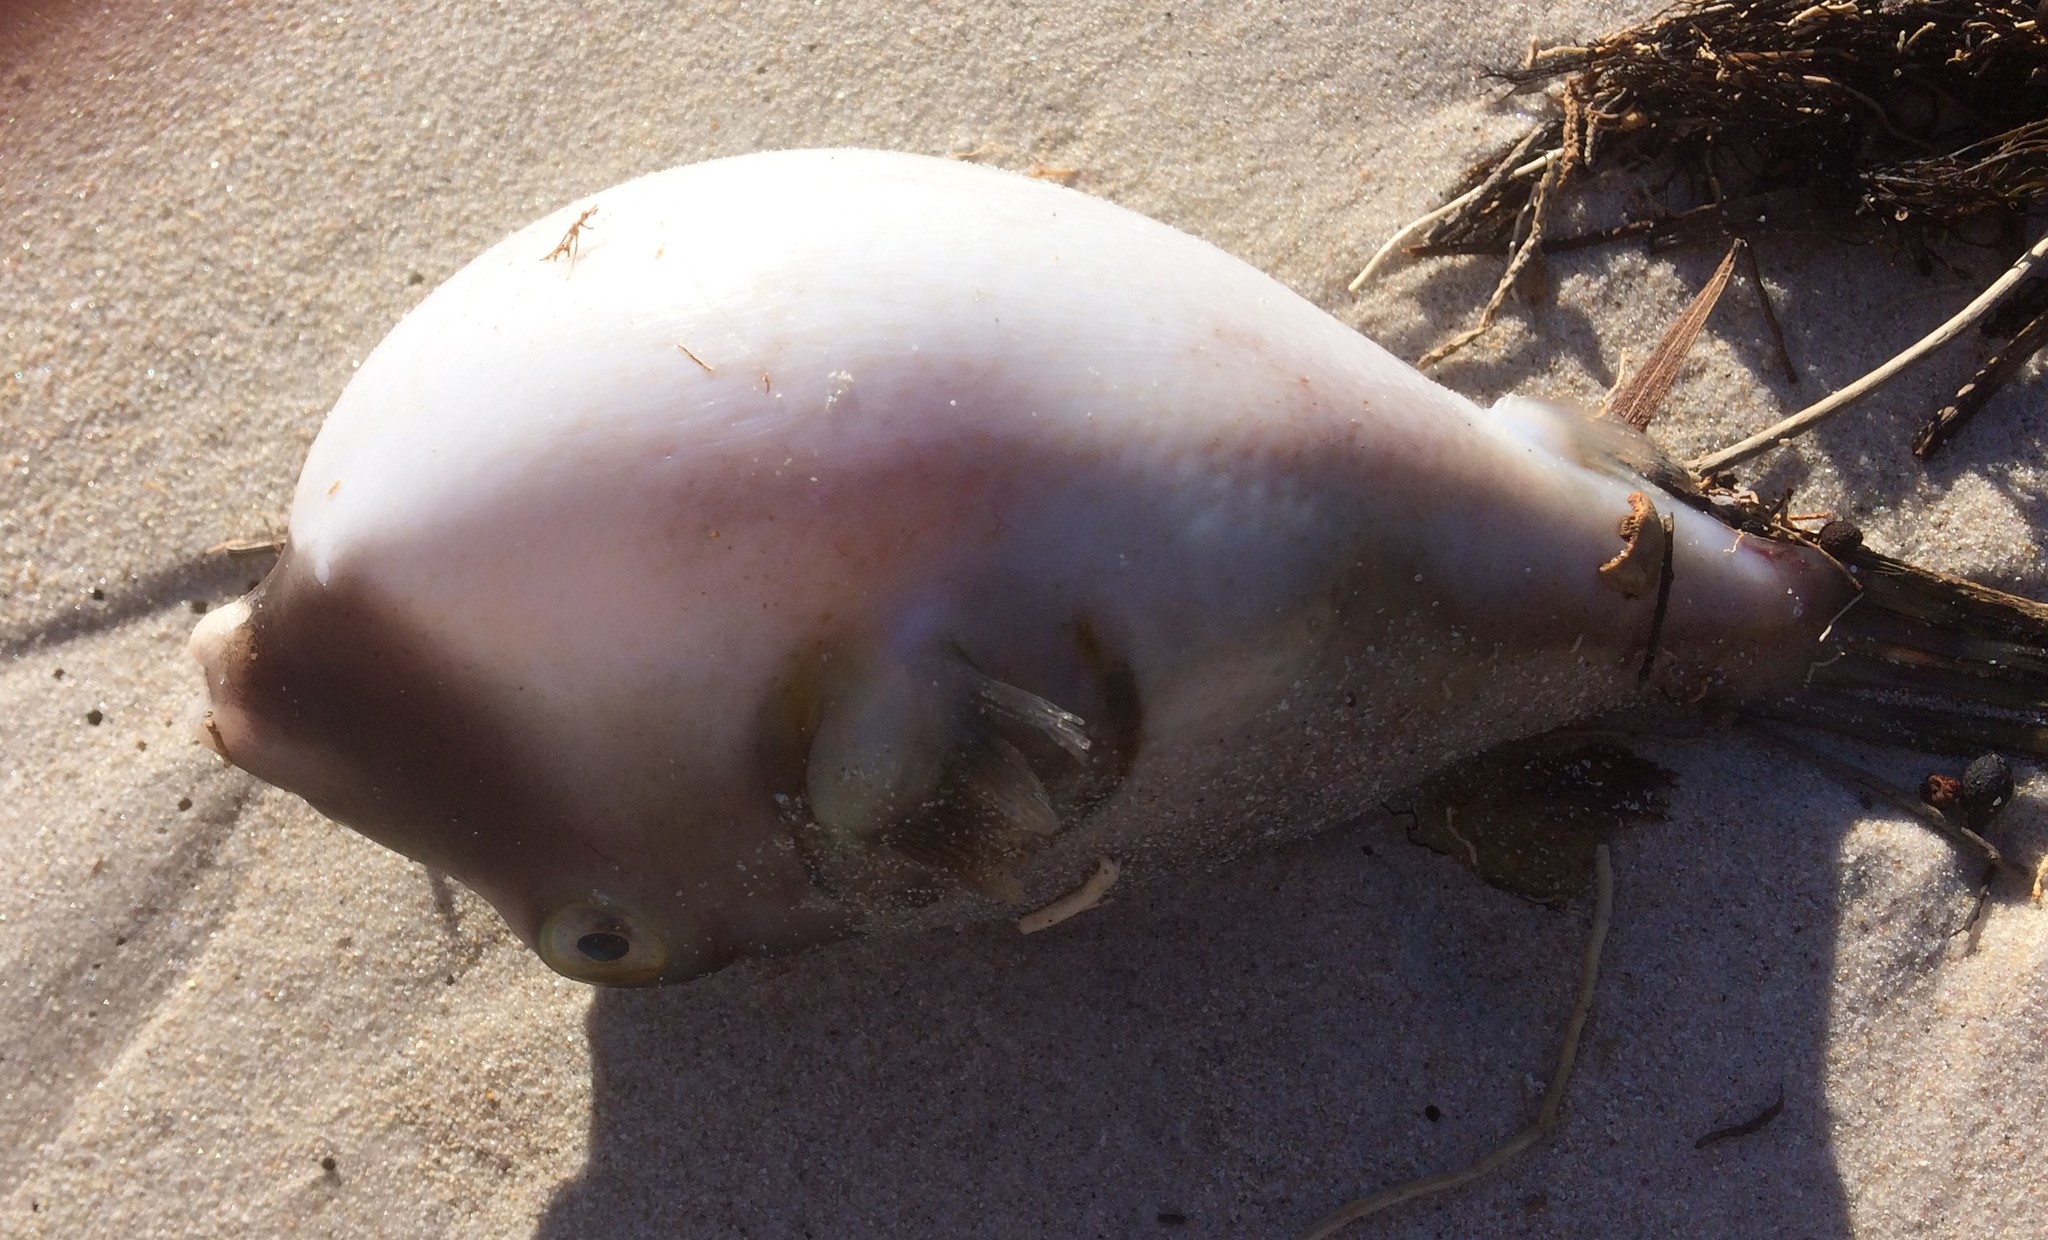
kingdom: Animalia
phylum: Chordata
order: Tetraodontiformes
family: Tetraodontidae
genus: Omegophora
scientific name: Omegophora armilla
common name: Ringed pufferfish
